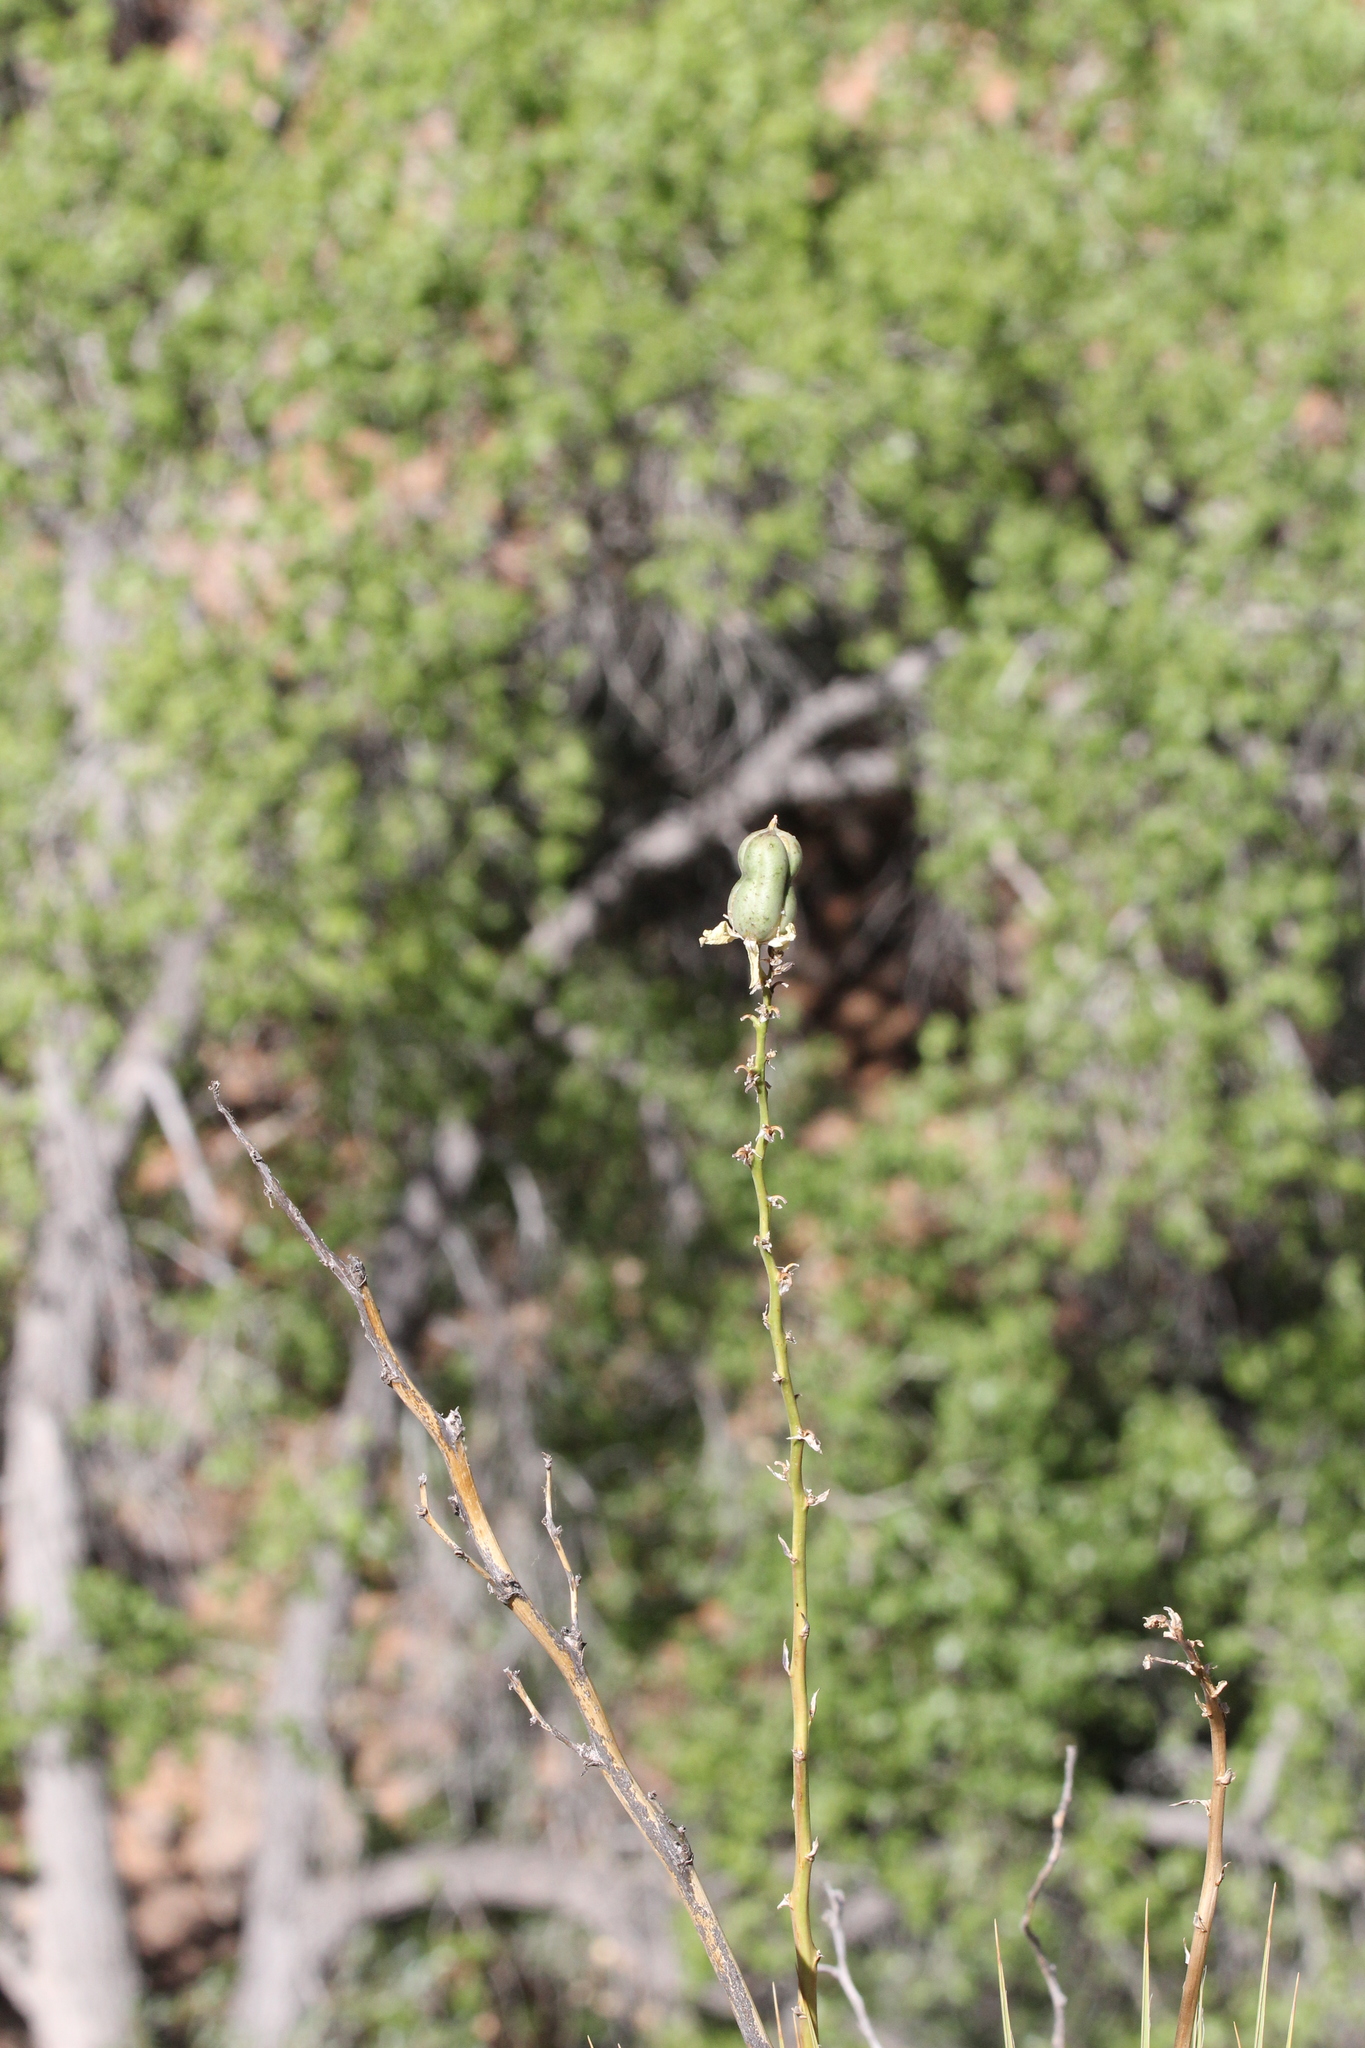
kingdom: Plantae
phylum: Tracheophyta
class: Liliopsida
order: Asparagales
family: Asparagaceae
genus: Yucca
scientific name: Yucca angustissima
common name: Narrowleaf yucca
